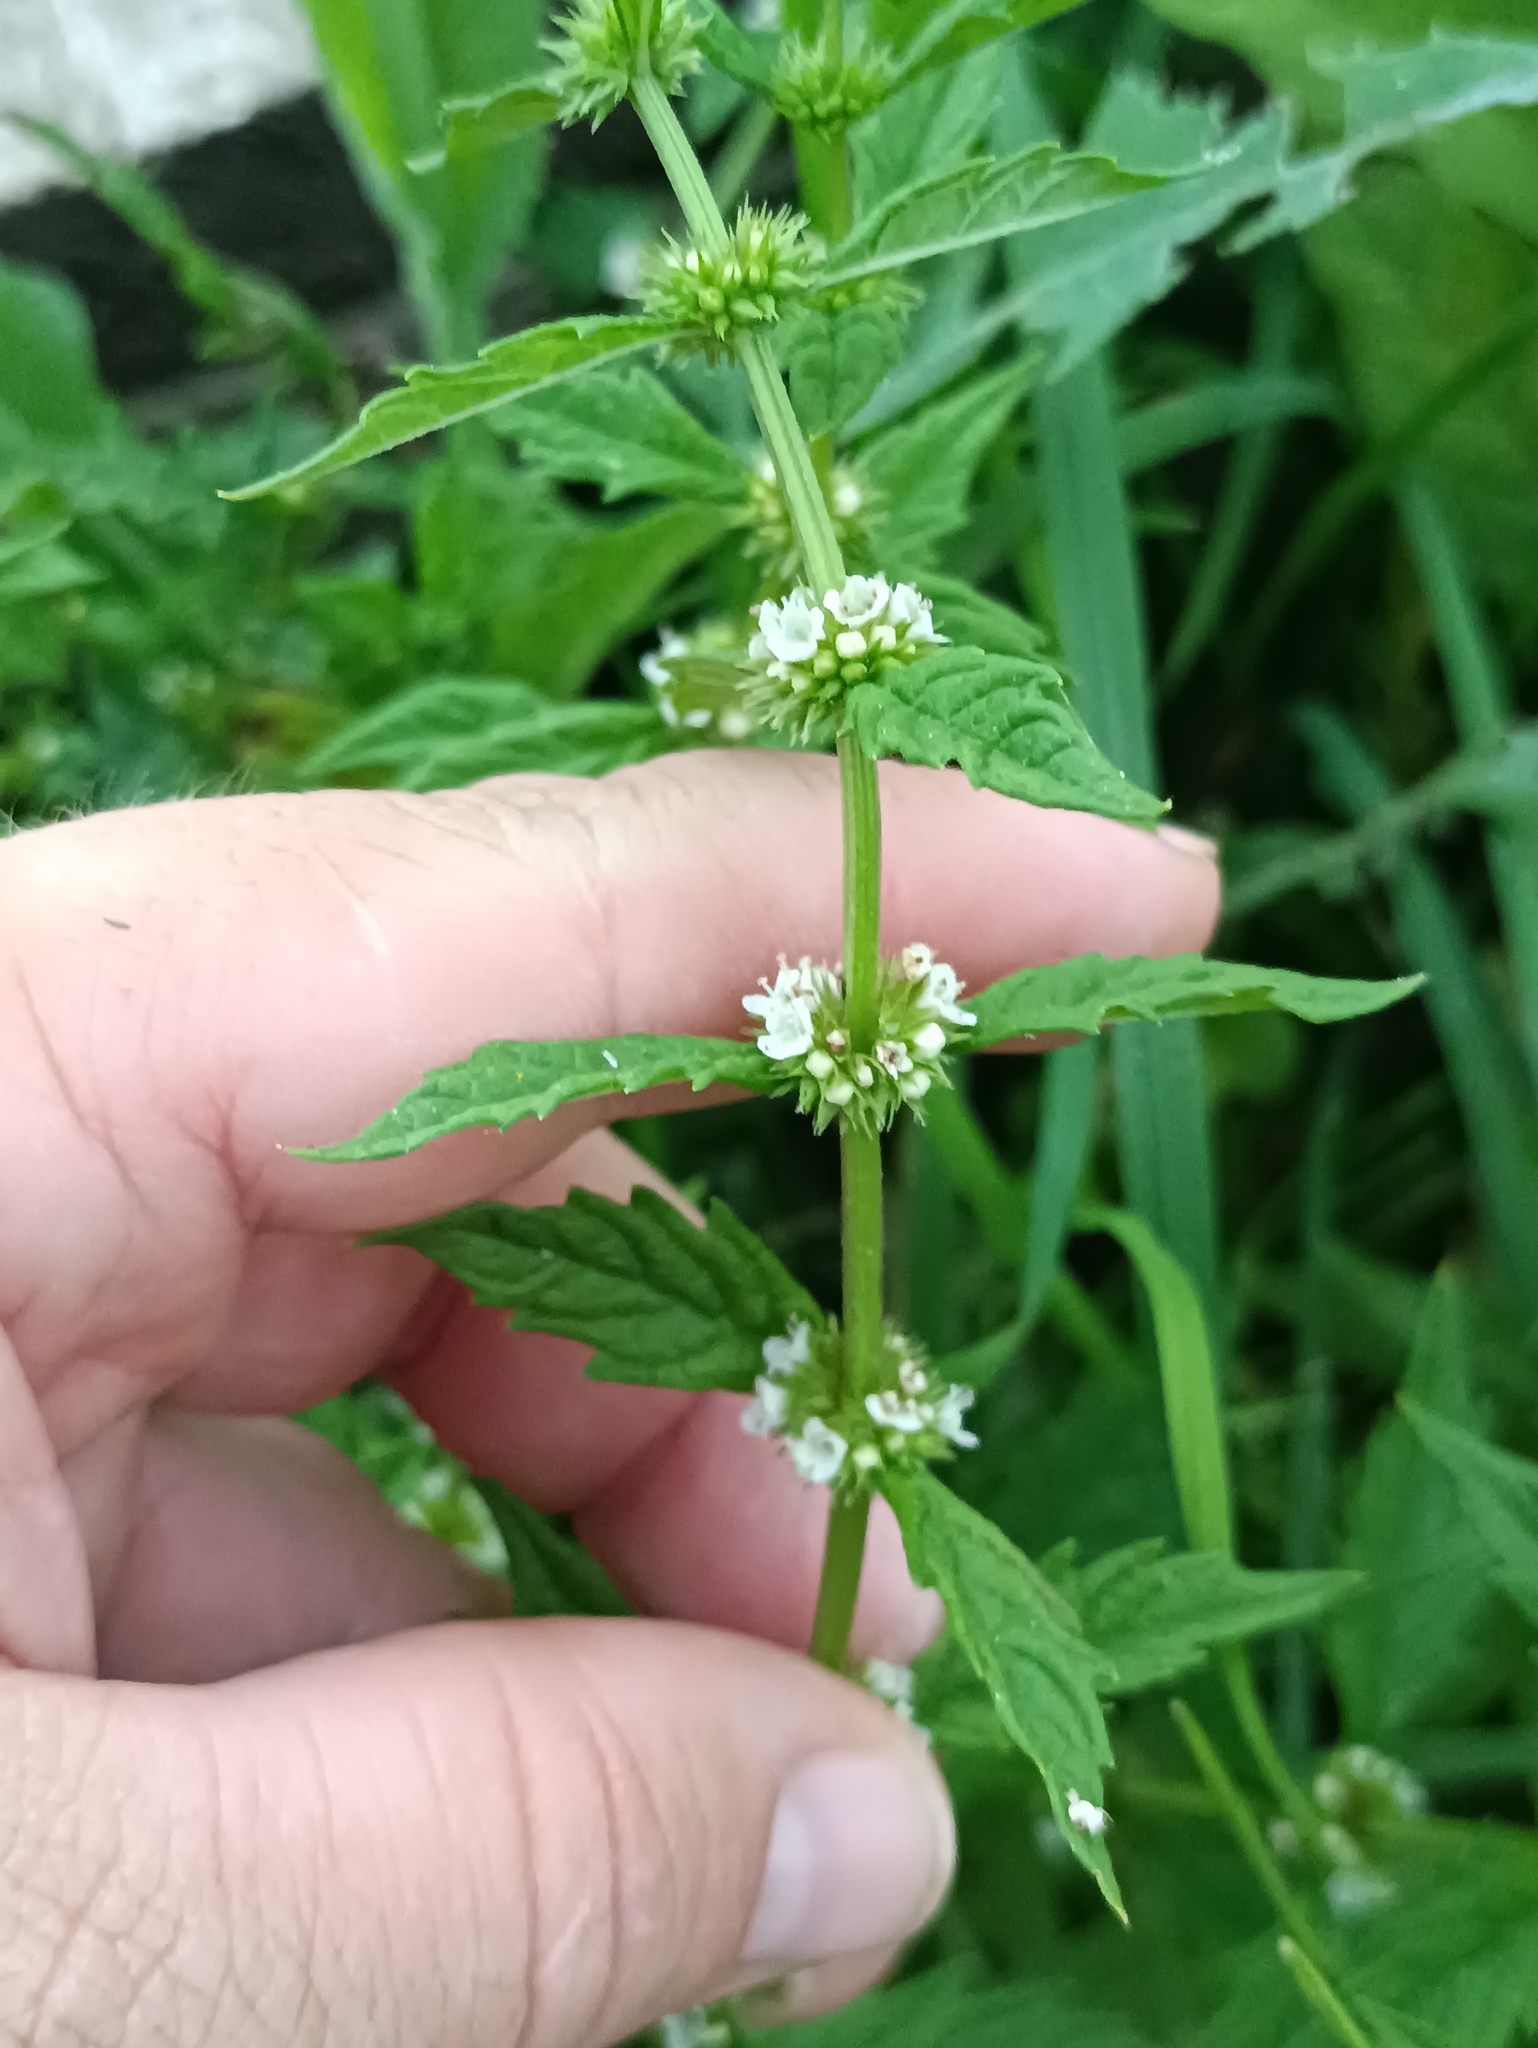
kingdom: Plantae
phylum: Tracheophyta
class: Magnoliopsida
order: Lamiales
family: Lamiaceae
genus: Lycopus
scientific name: Lycopus europaeus
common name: European bugleweed
